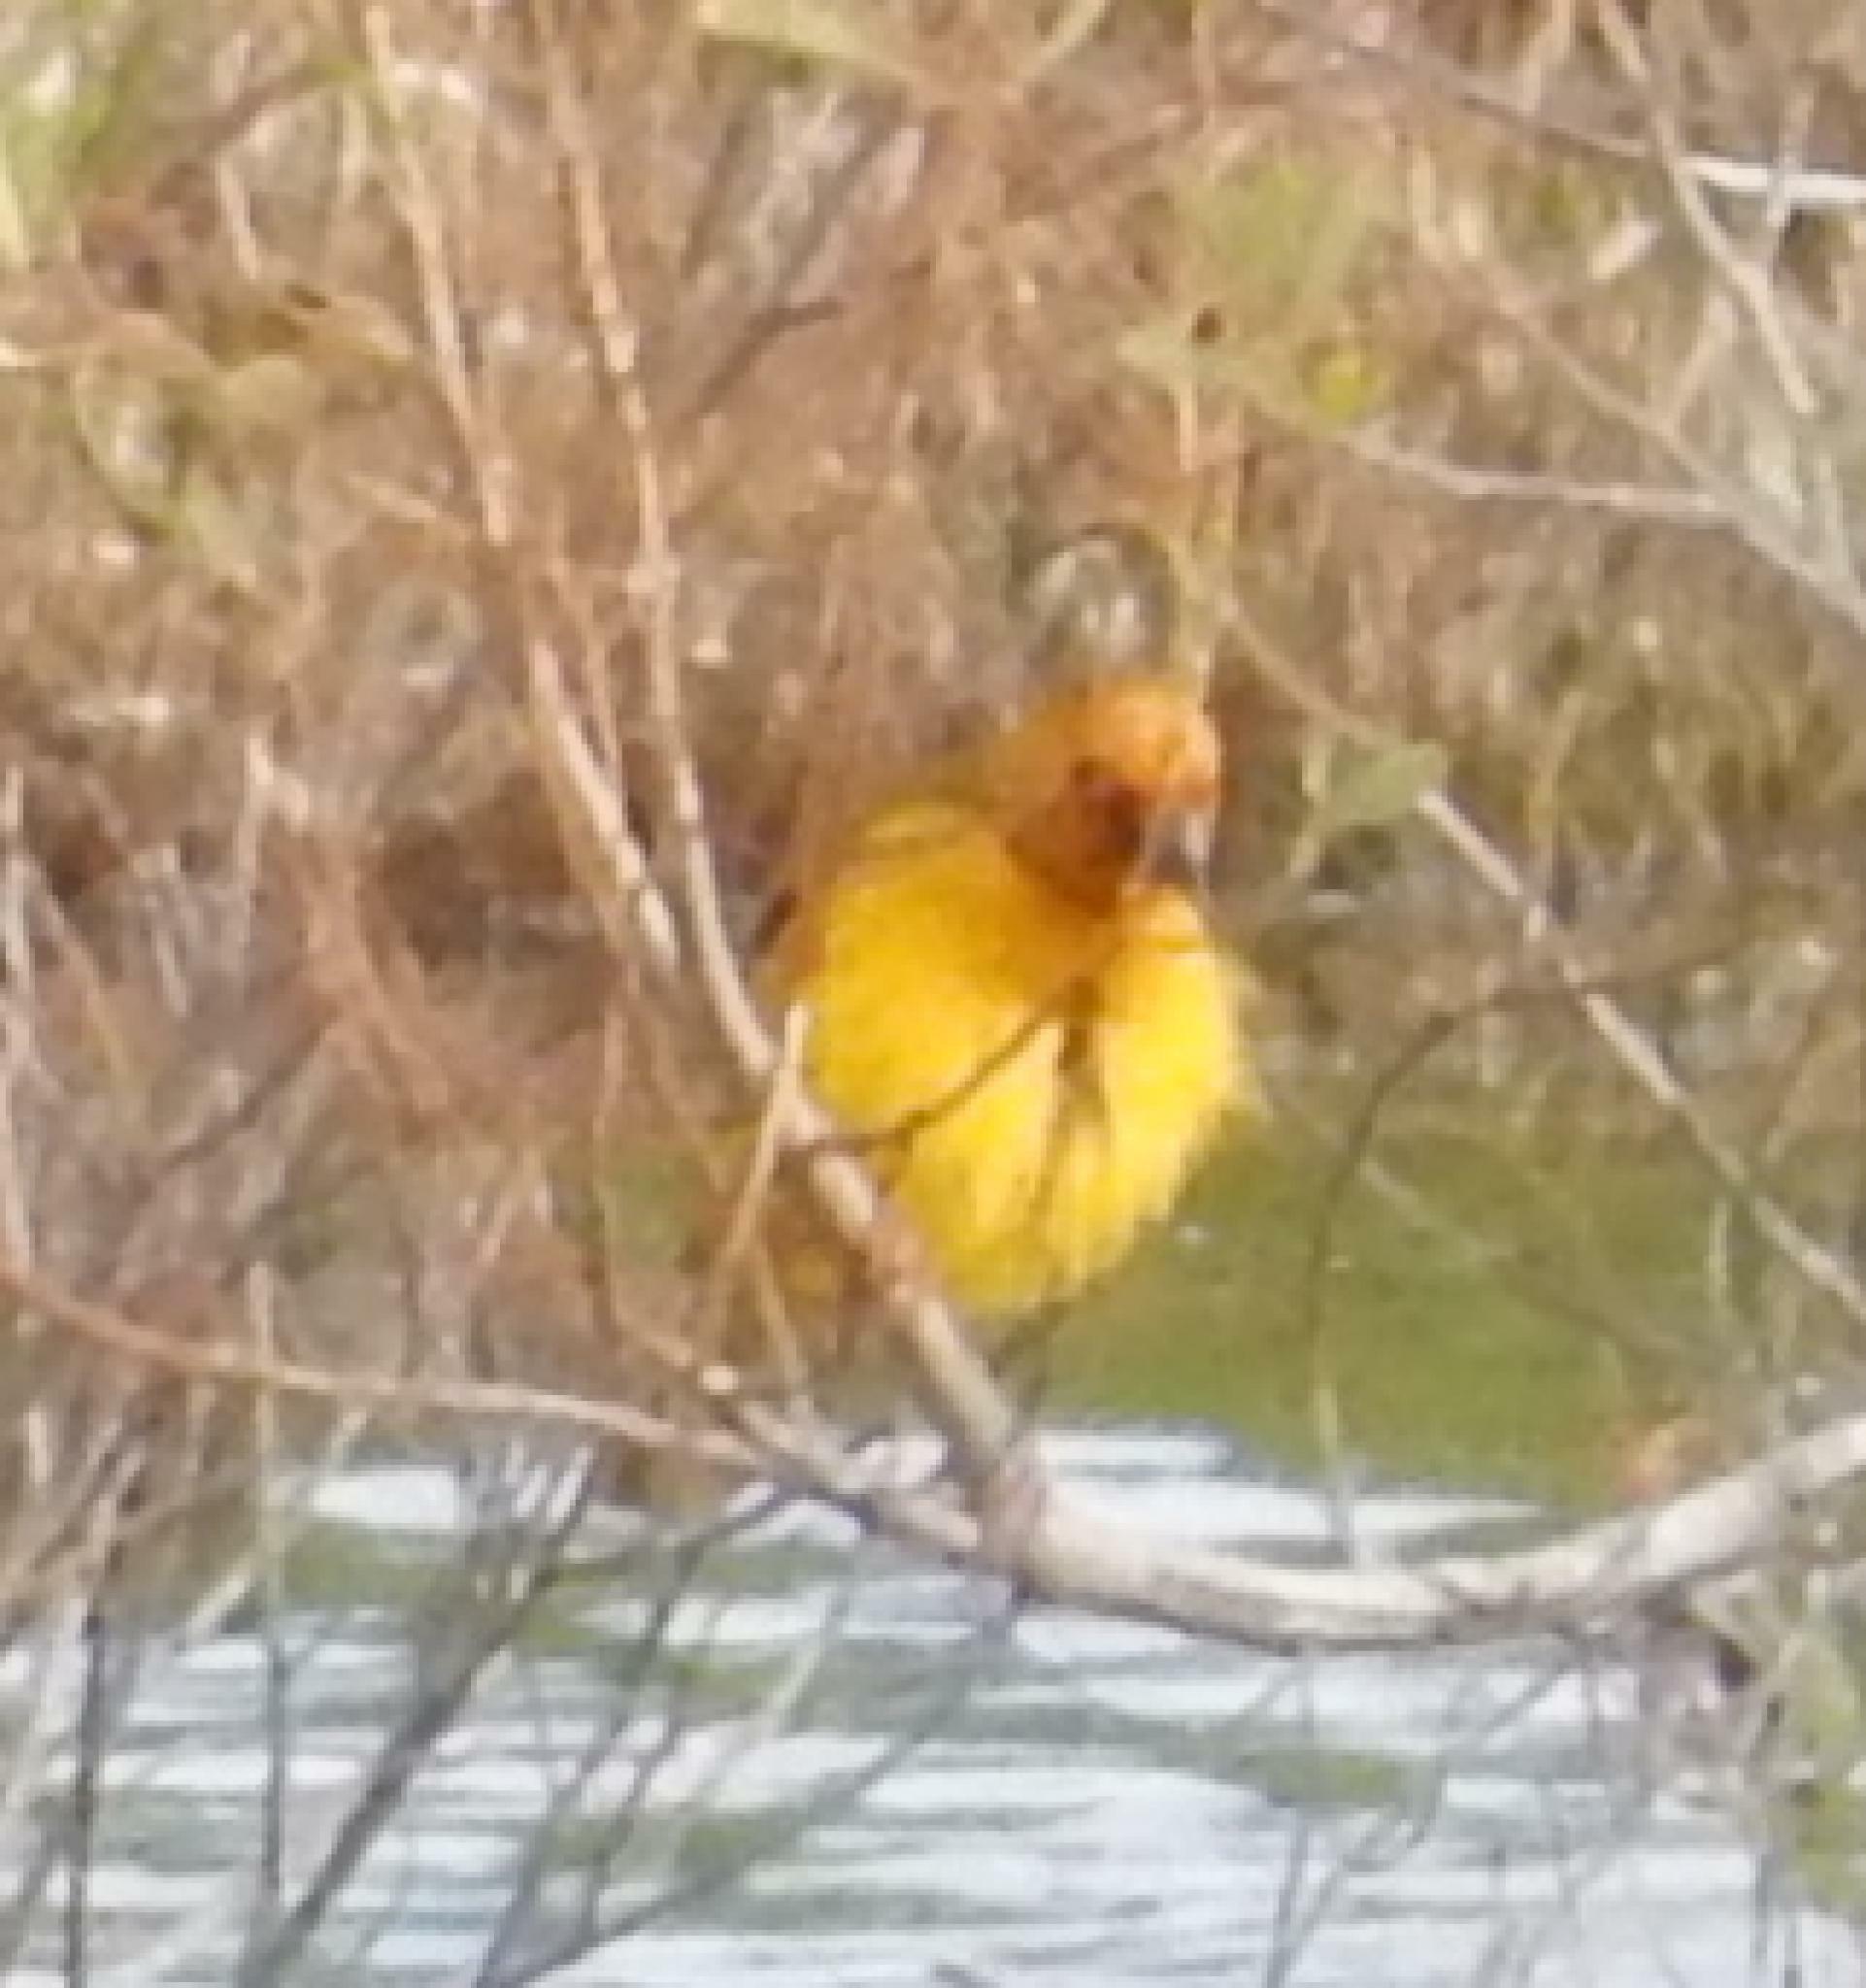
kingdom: Animalia
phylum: Chordata
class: Aves
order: Passeriformes
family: Ploceidae
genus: Ploceus
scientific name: Ploceus capensis
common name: Cape weaver
